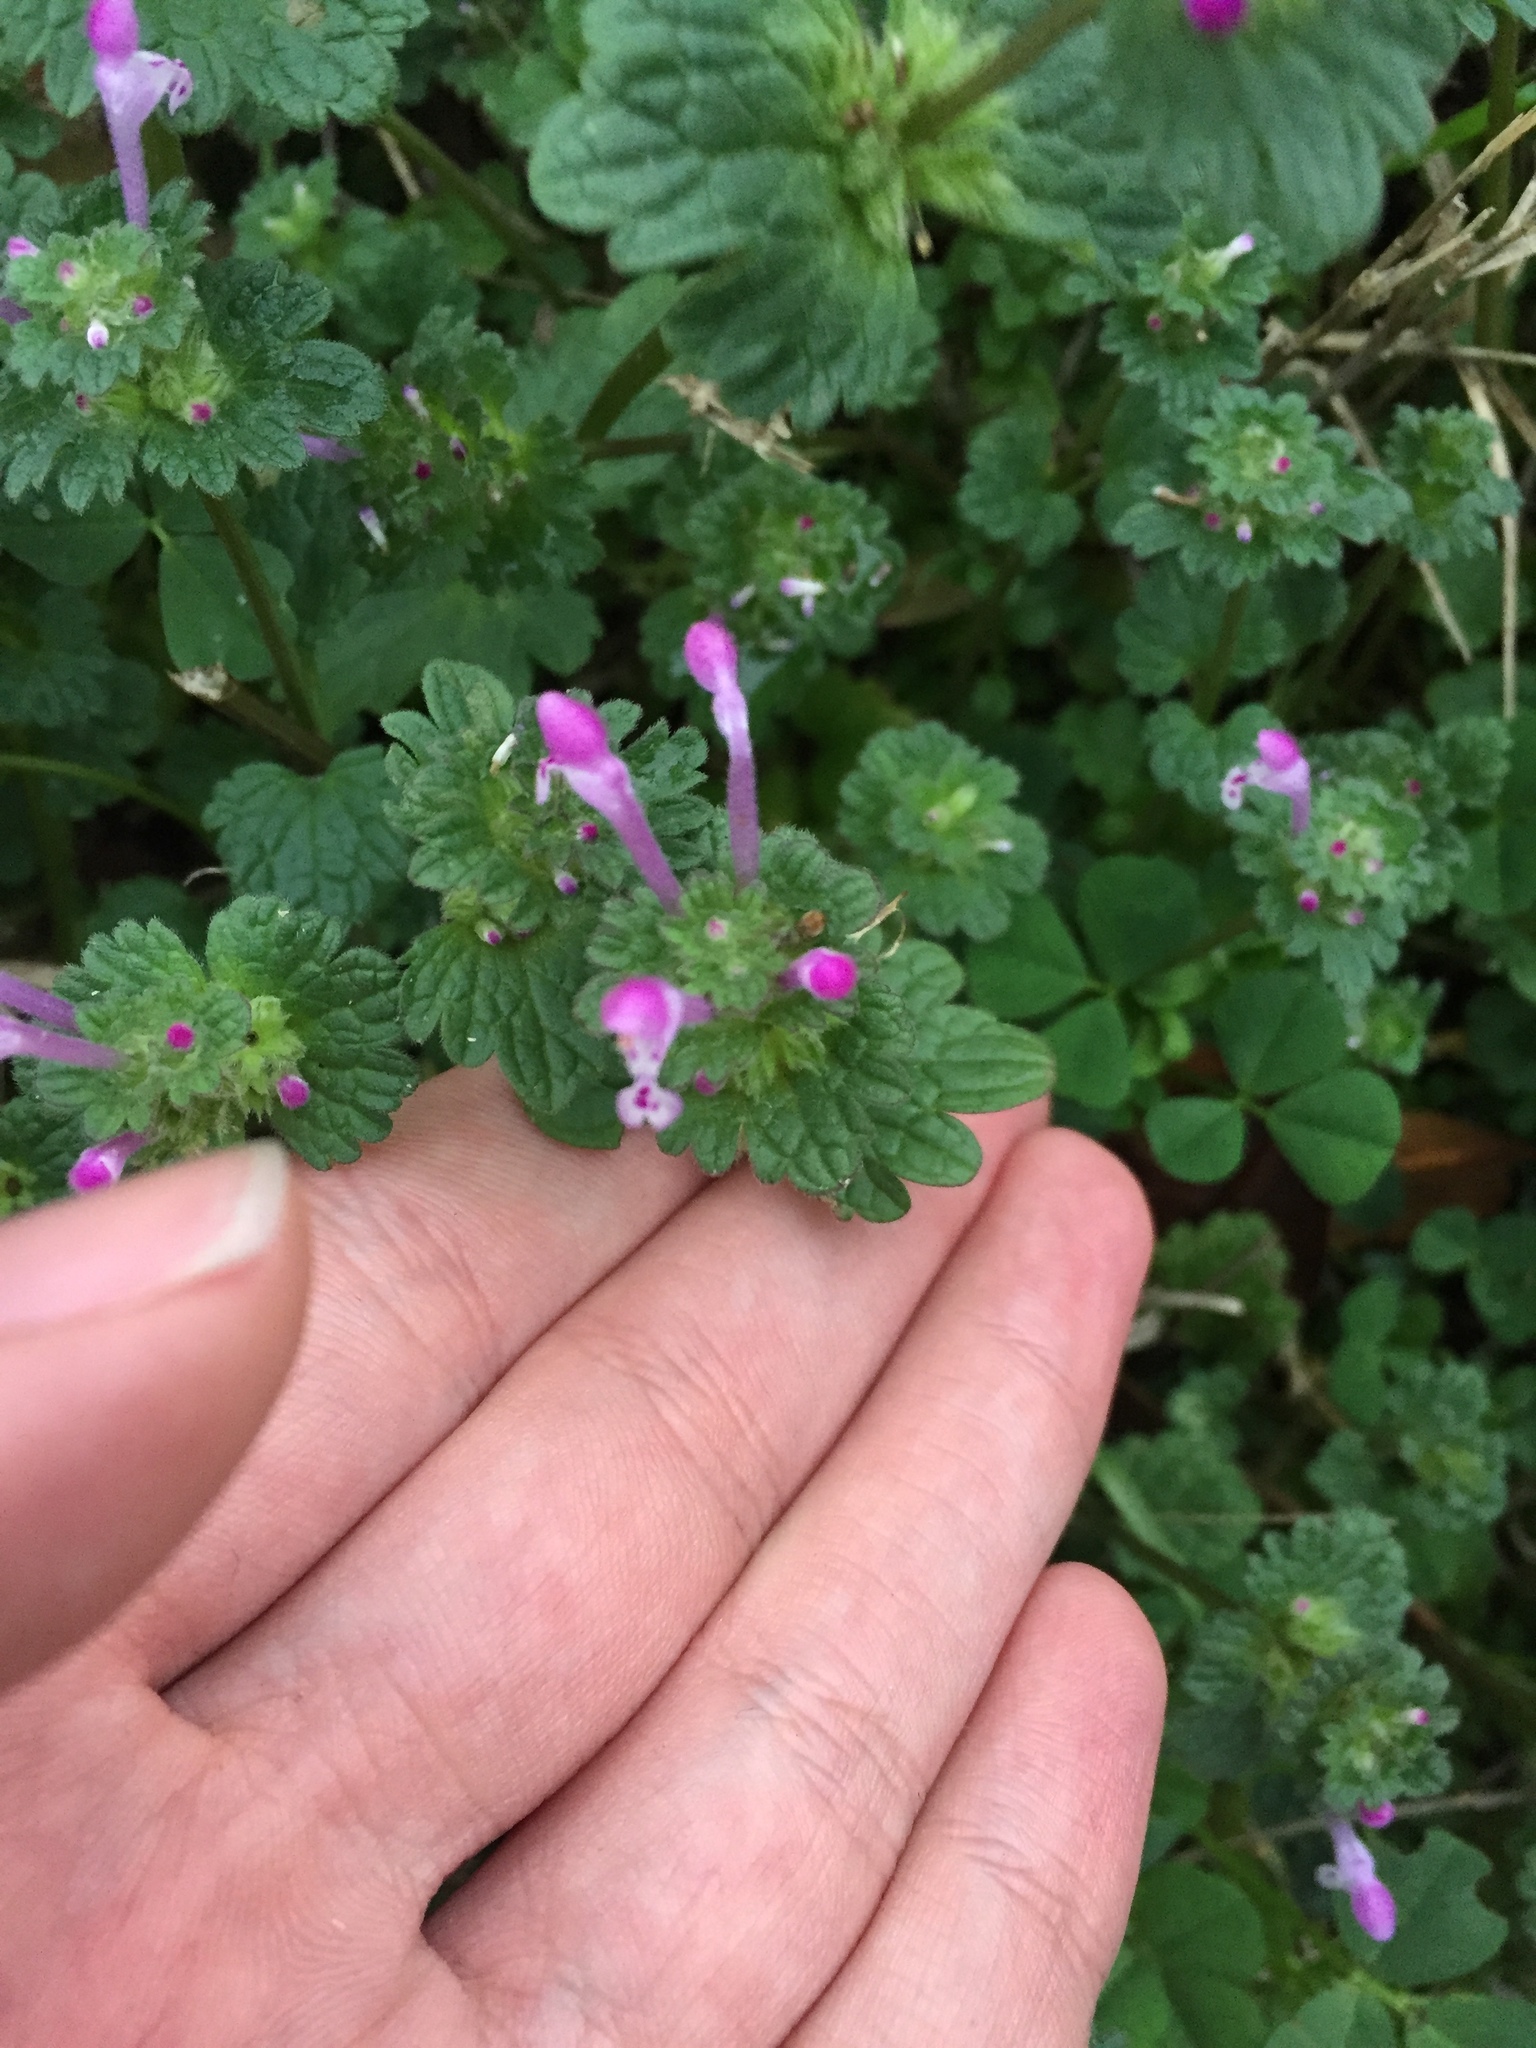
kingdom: Plantae
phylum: Tracheophyta
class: Magnoliopsida
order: Lamiales
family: Lamiaceae
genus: Lamium
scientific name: Lamium amplexicaule
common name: Henbit dead-nettle
